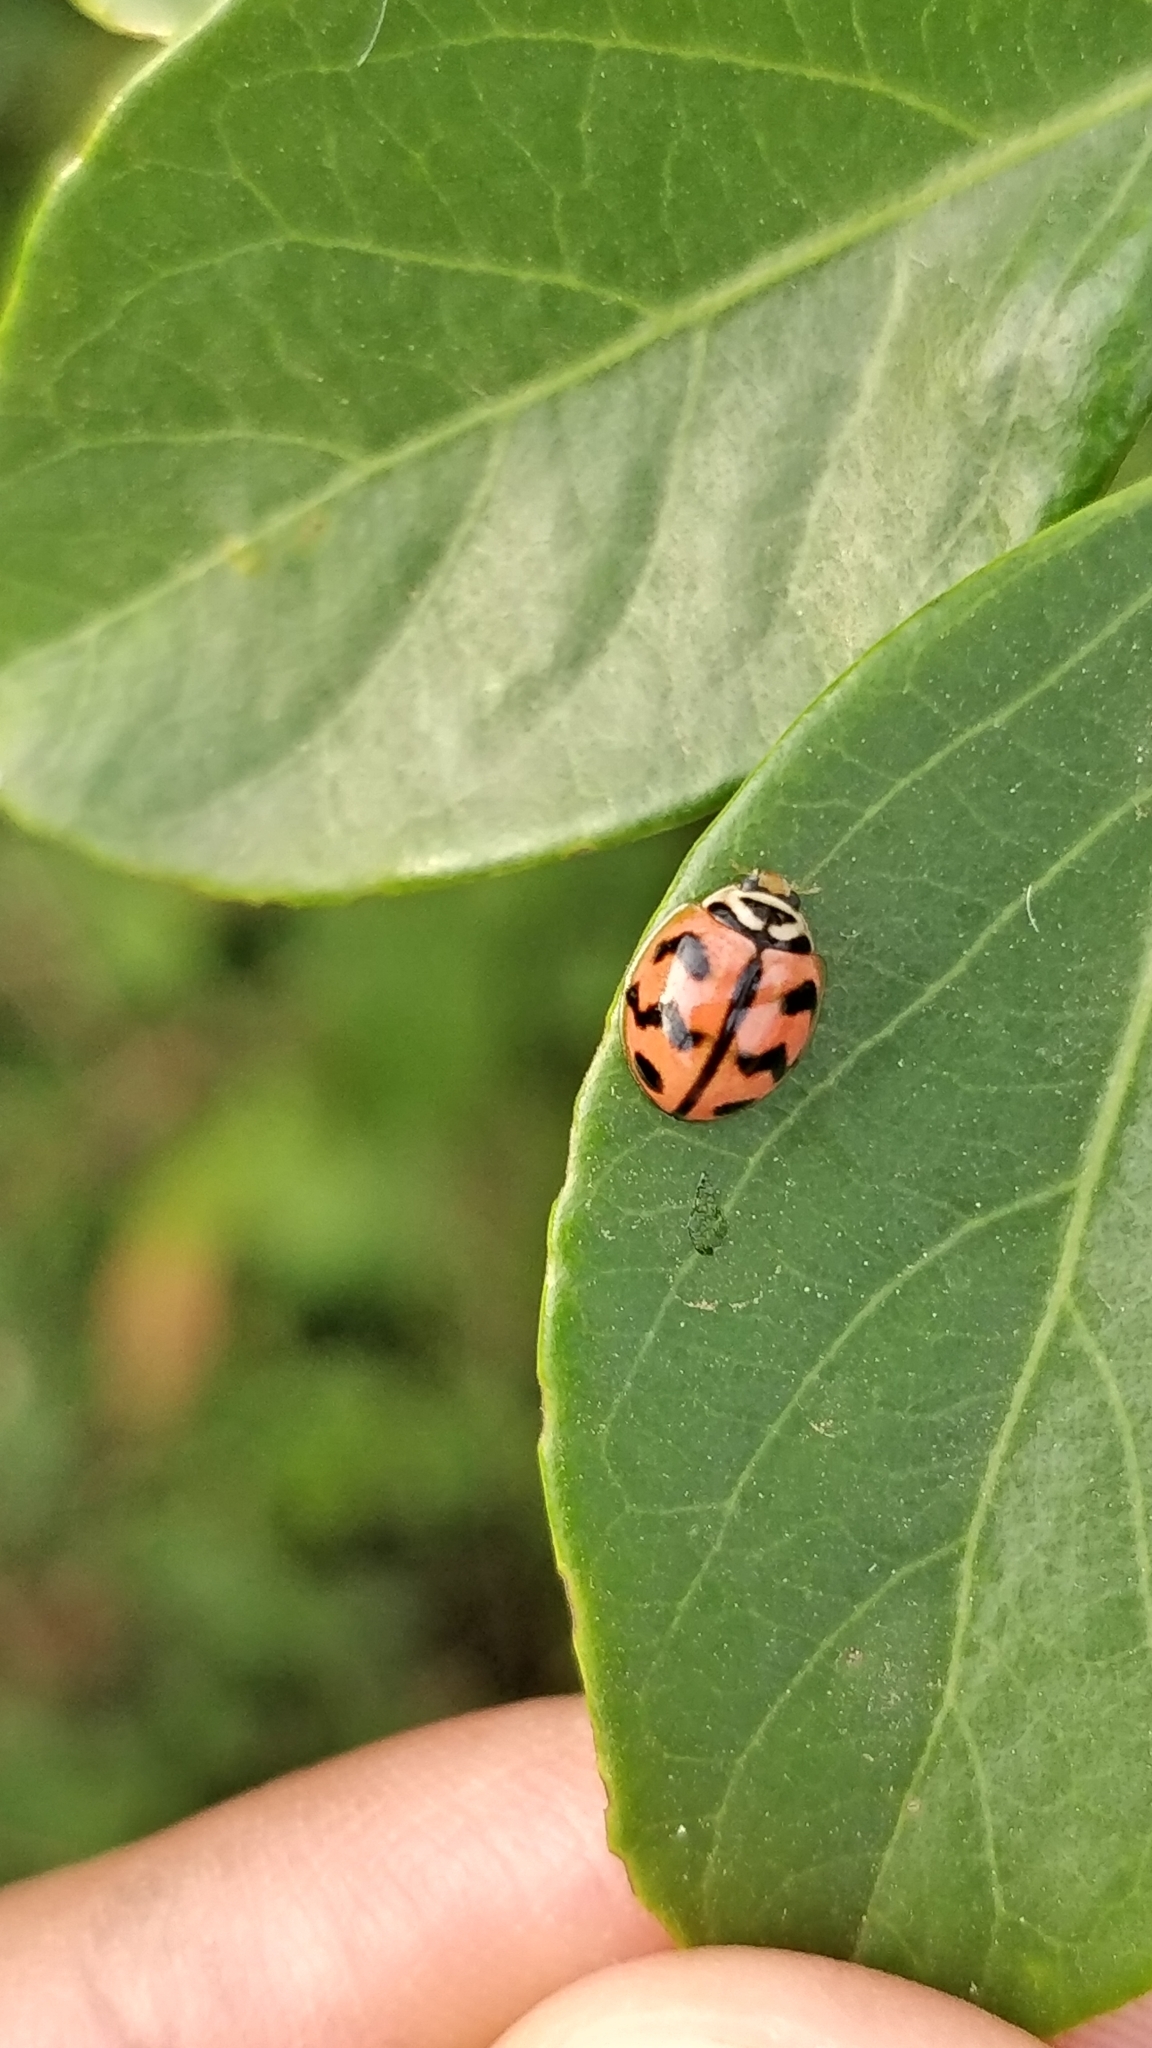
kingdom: Animalia
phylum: Arthropoda
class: Insecta
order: Coleoptera
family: Coccinellidae
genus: Cheilomenes
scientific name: Cheilomenes sexmaculata
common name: Ladybird beetle
